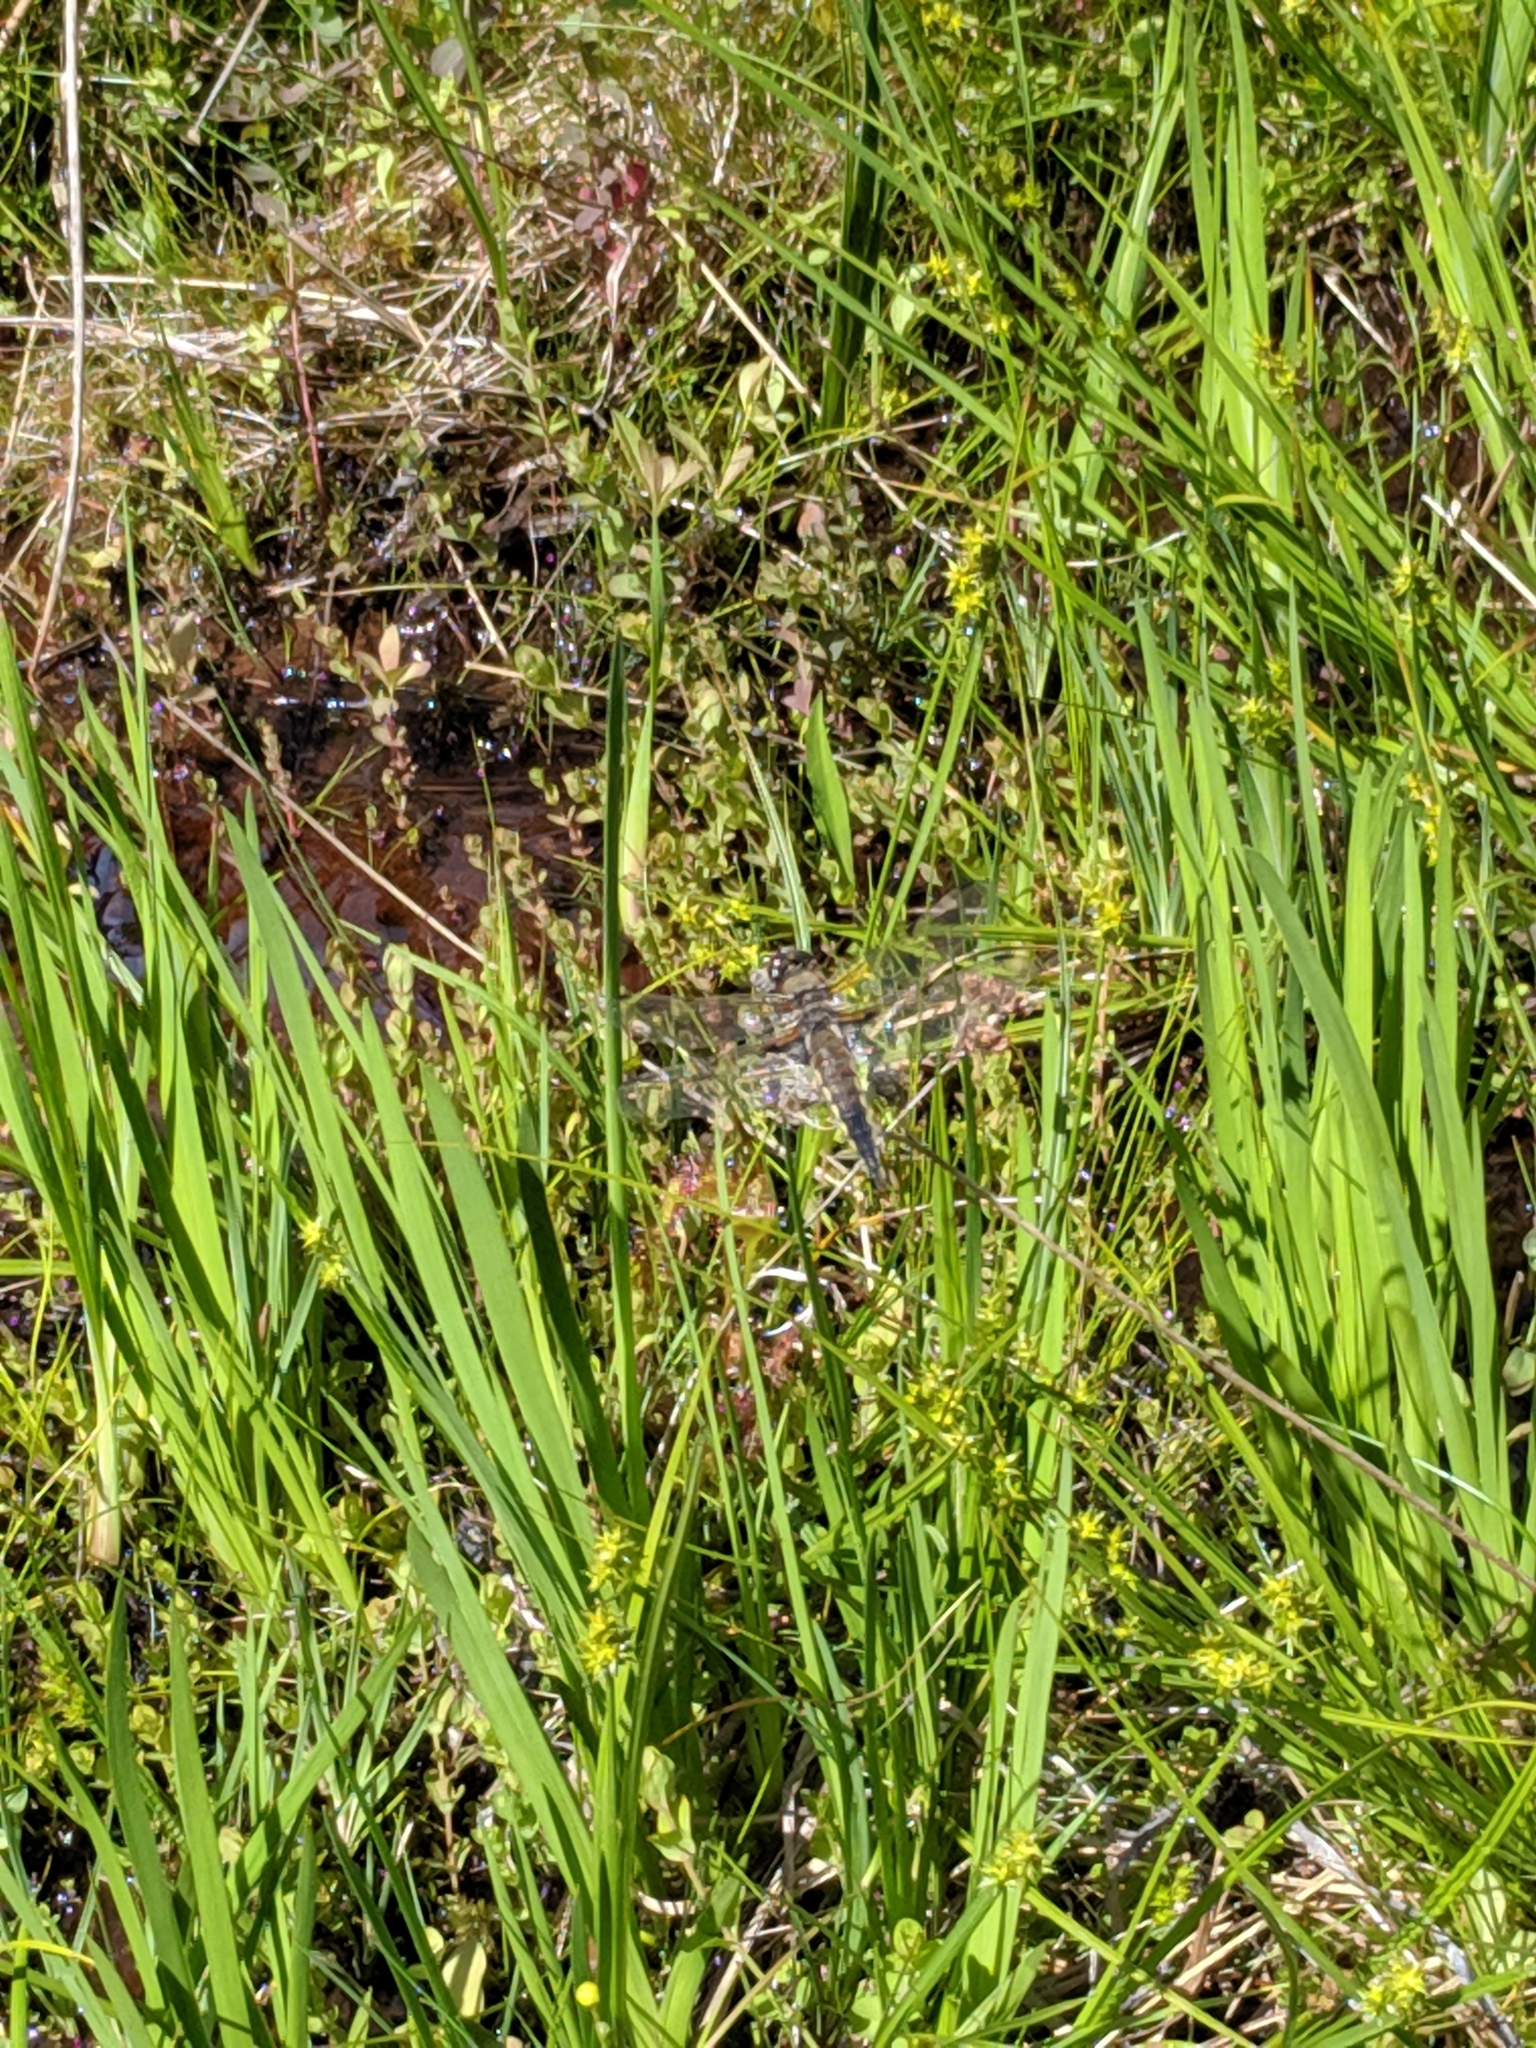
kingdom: Animalia
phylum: Arthropoda
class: Insecta
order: Odonata
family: Libellulidae
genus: Libellula
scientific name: Libellula quadrimaculata
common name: Four-spotted chaser
